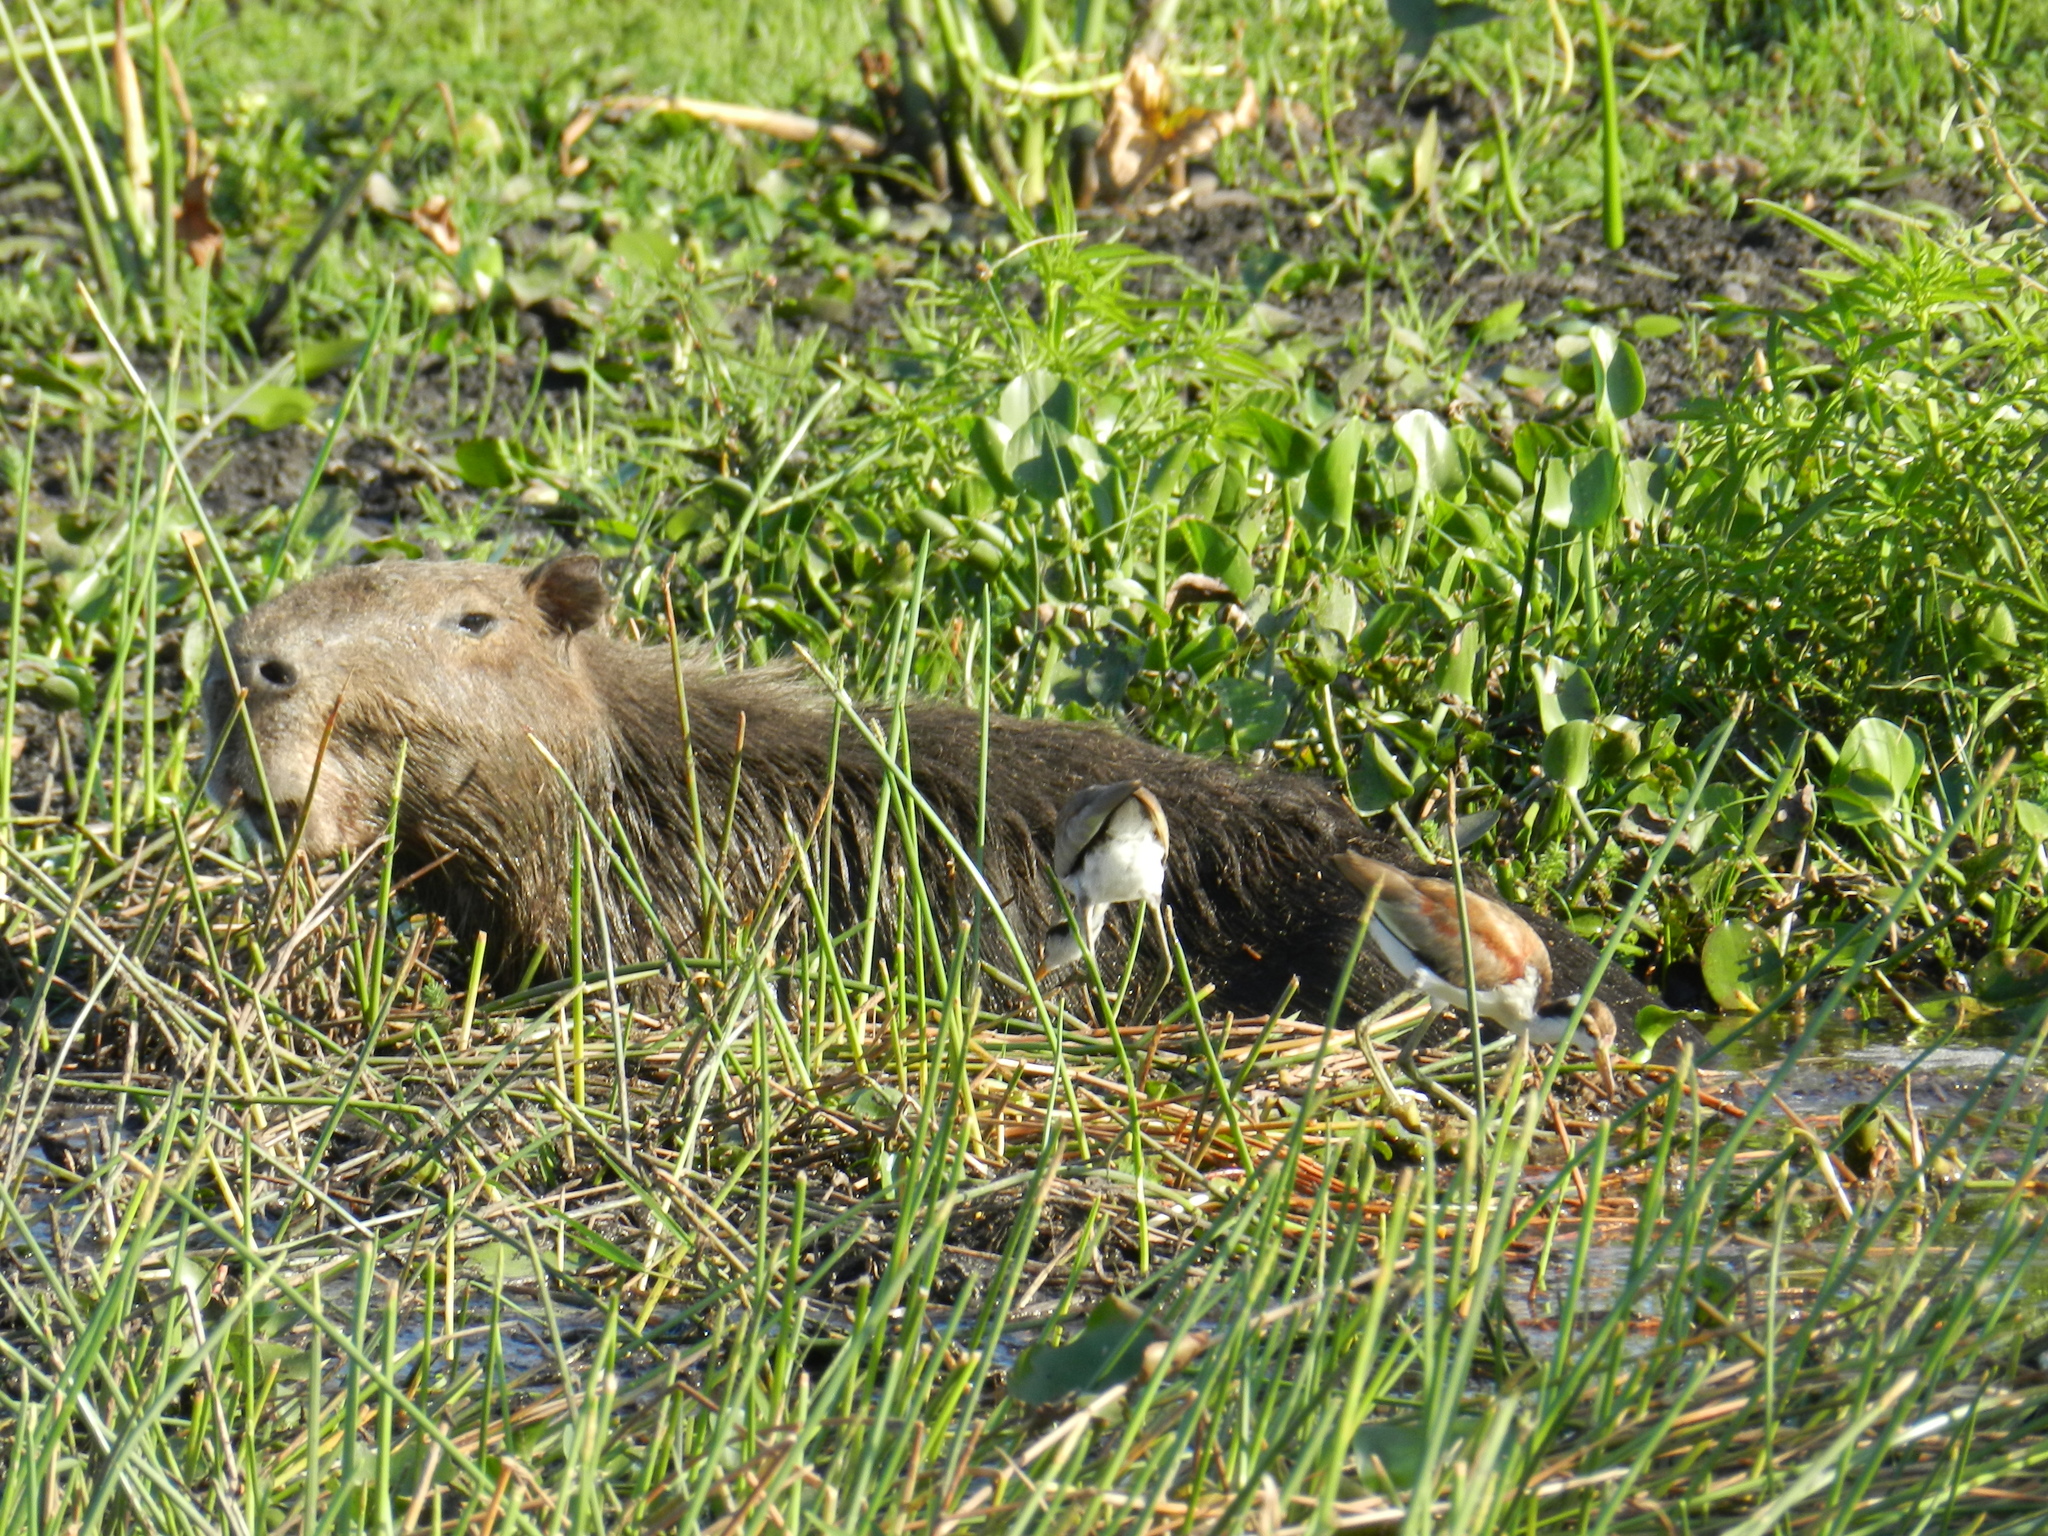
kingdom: Animalia
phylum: Chordata
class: Mammalia
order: Rodentia
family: Caviidae
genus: Hydrochoerus
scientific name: Hydrochoerus hydrochaeris
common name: Capybara
